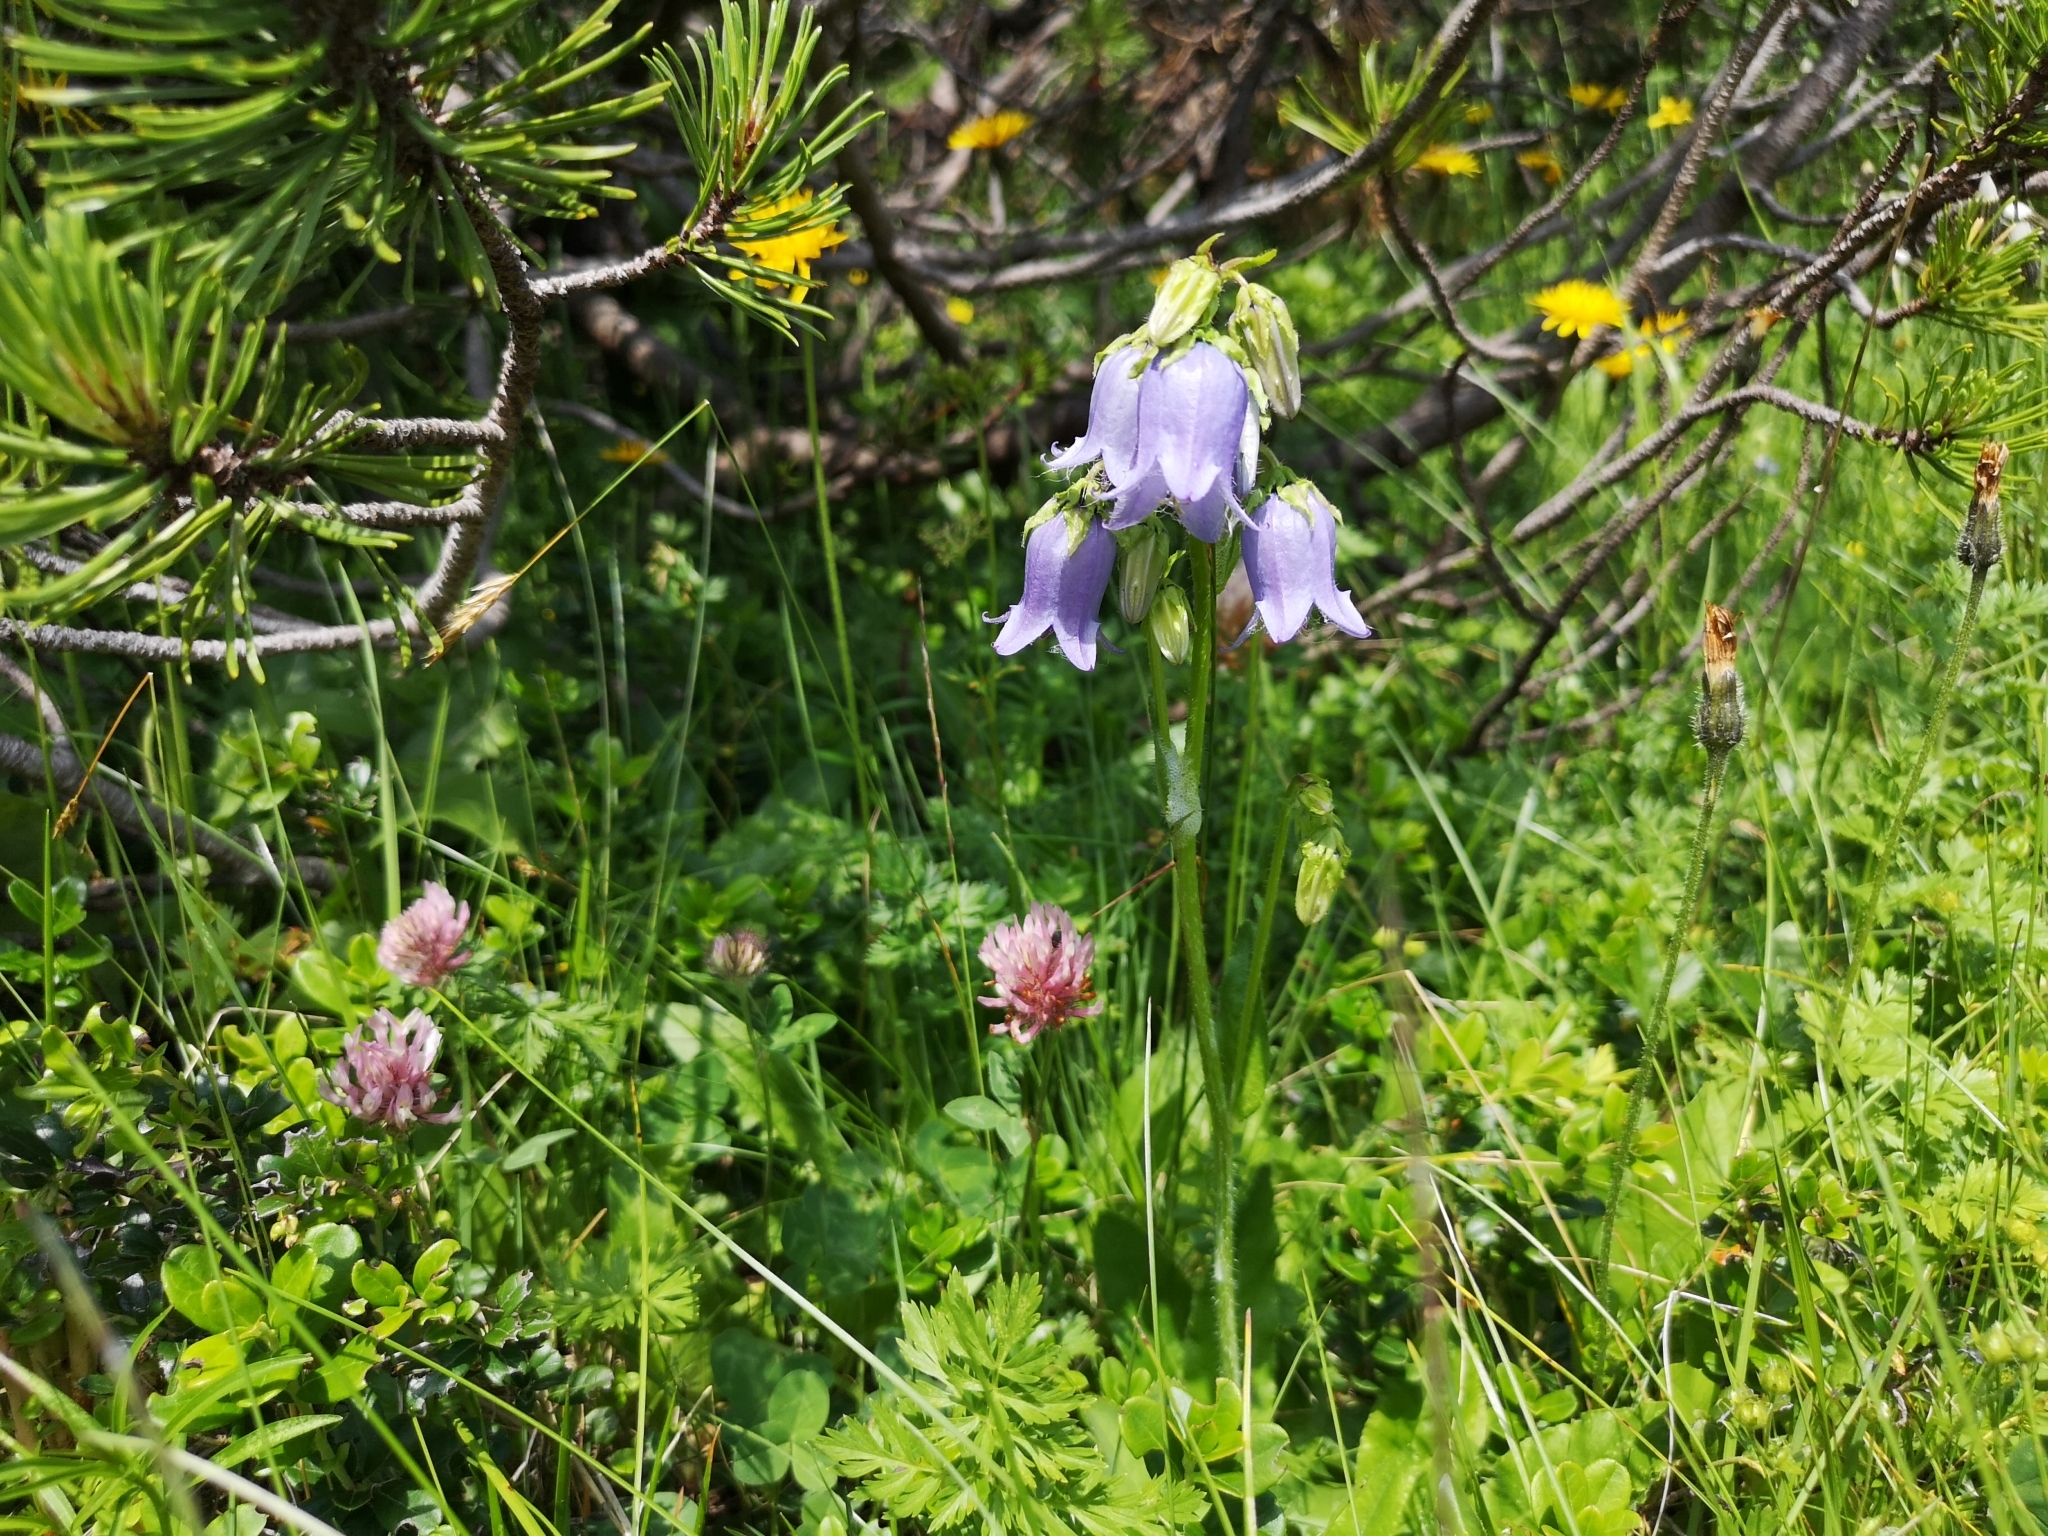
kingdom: Plantae
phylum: Tracheophyta
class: Magnoliopsida
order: Asterales
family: Campanulaceae
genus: Campanula
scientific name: Campanula barbata
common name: Bearded bellflower
